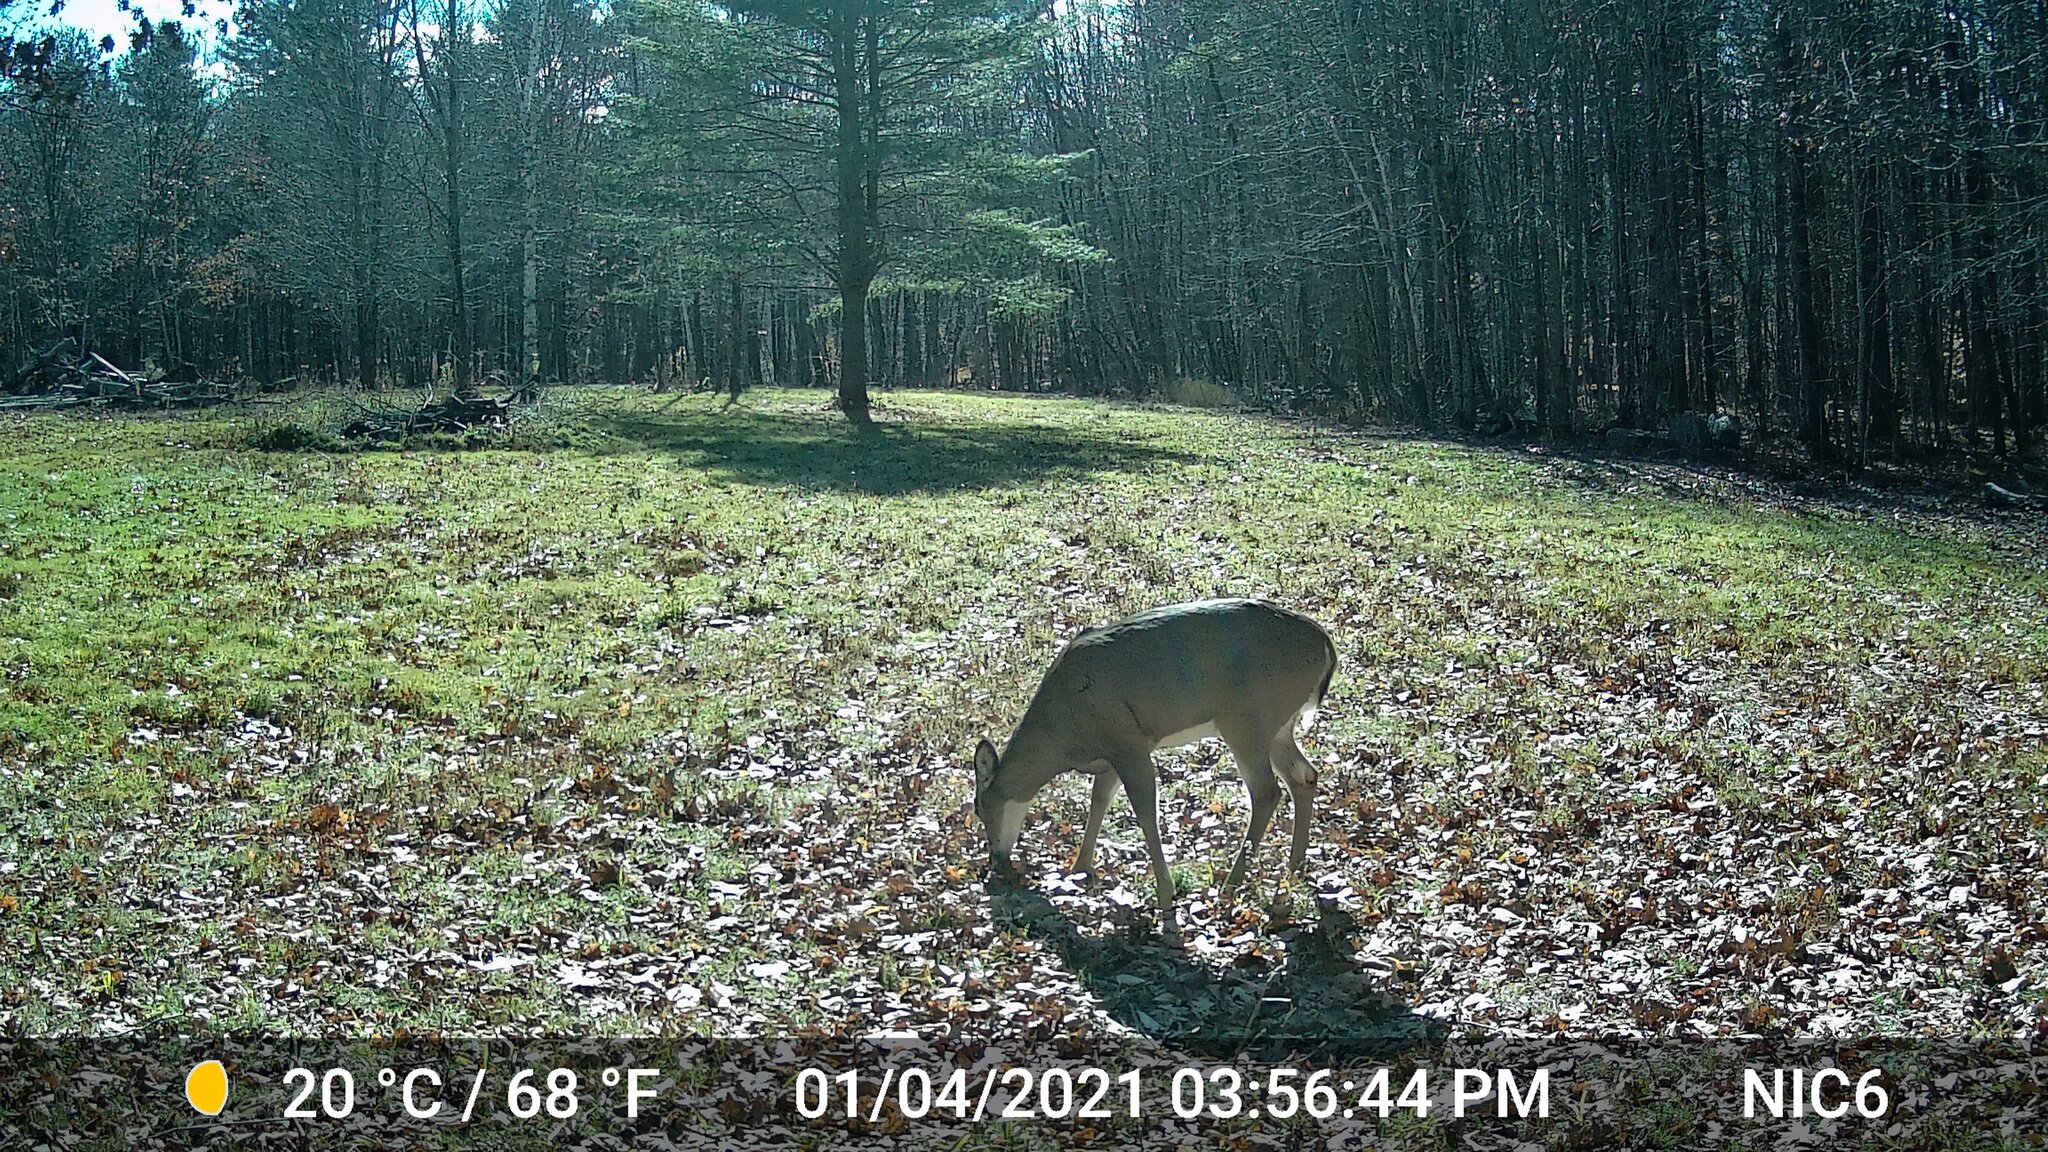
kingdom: Animalia
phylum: Chordata
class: Mammalia
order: Artiodactyla
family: Cervidae
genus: Odocoileus
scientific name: Odocoileus virginianus
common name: White-tailed deer
